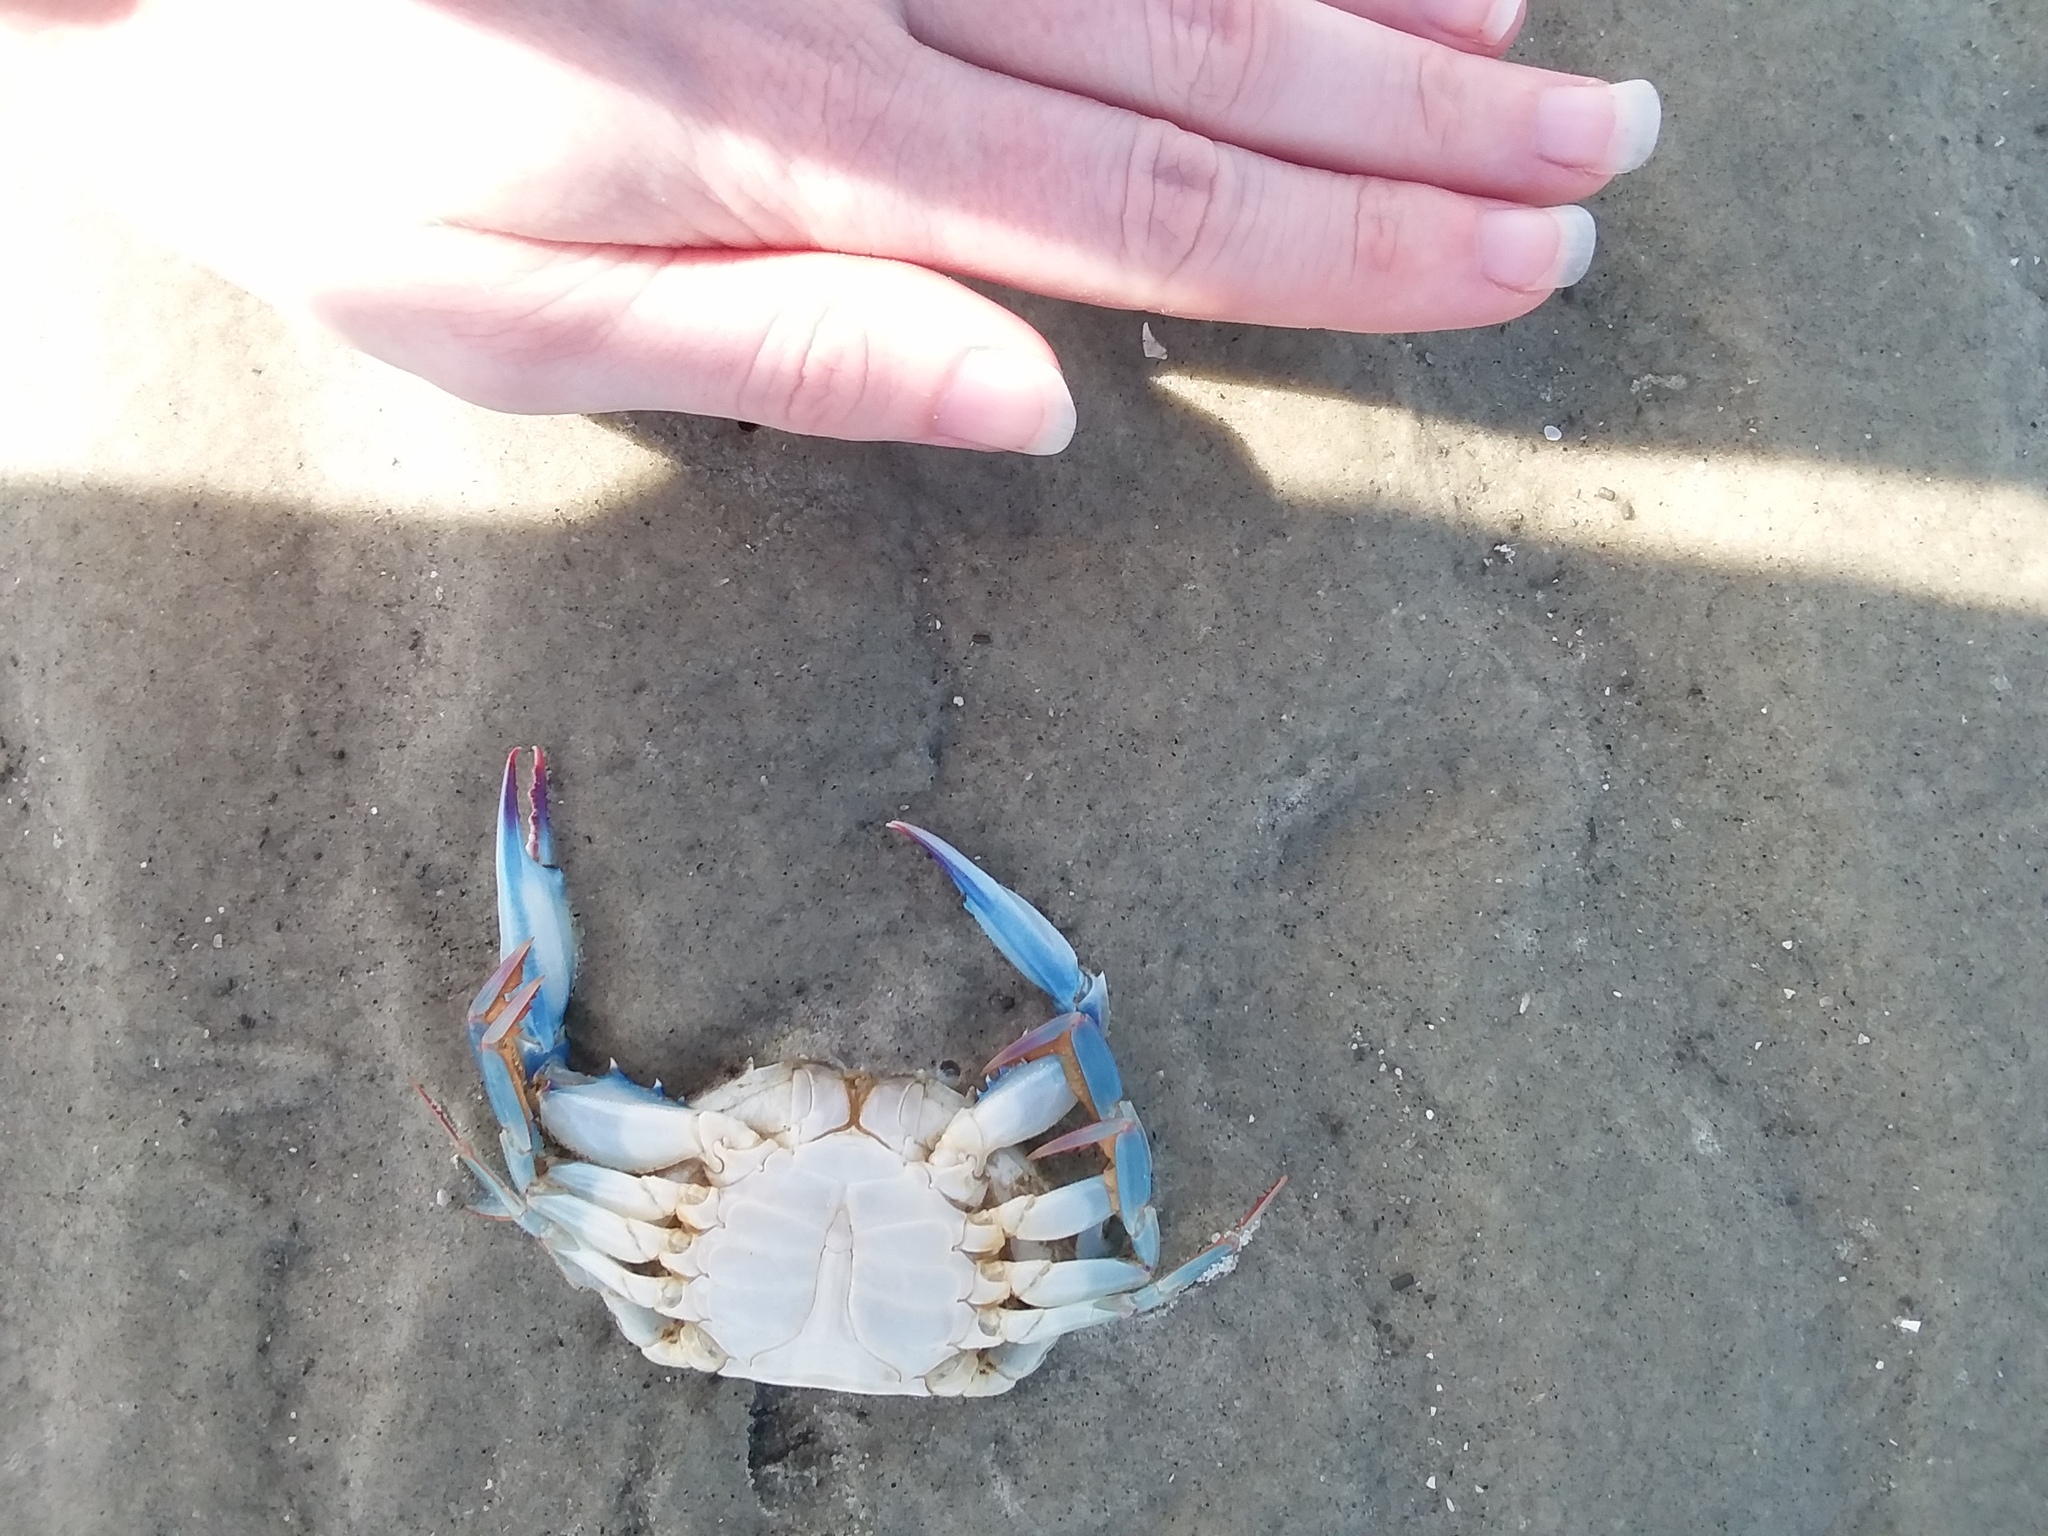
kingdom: Animalia
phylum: Arthropoda
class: Malacostraca
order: Decapoda
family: Portunidae
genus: Callinectes
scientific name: Callinectes sapidus
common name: Blue crab
